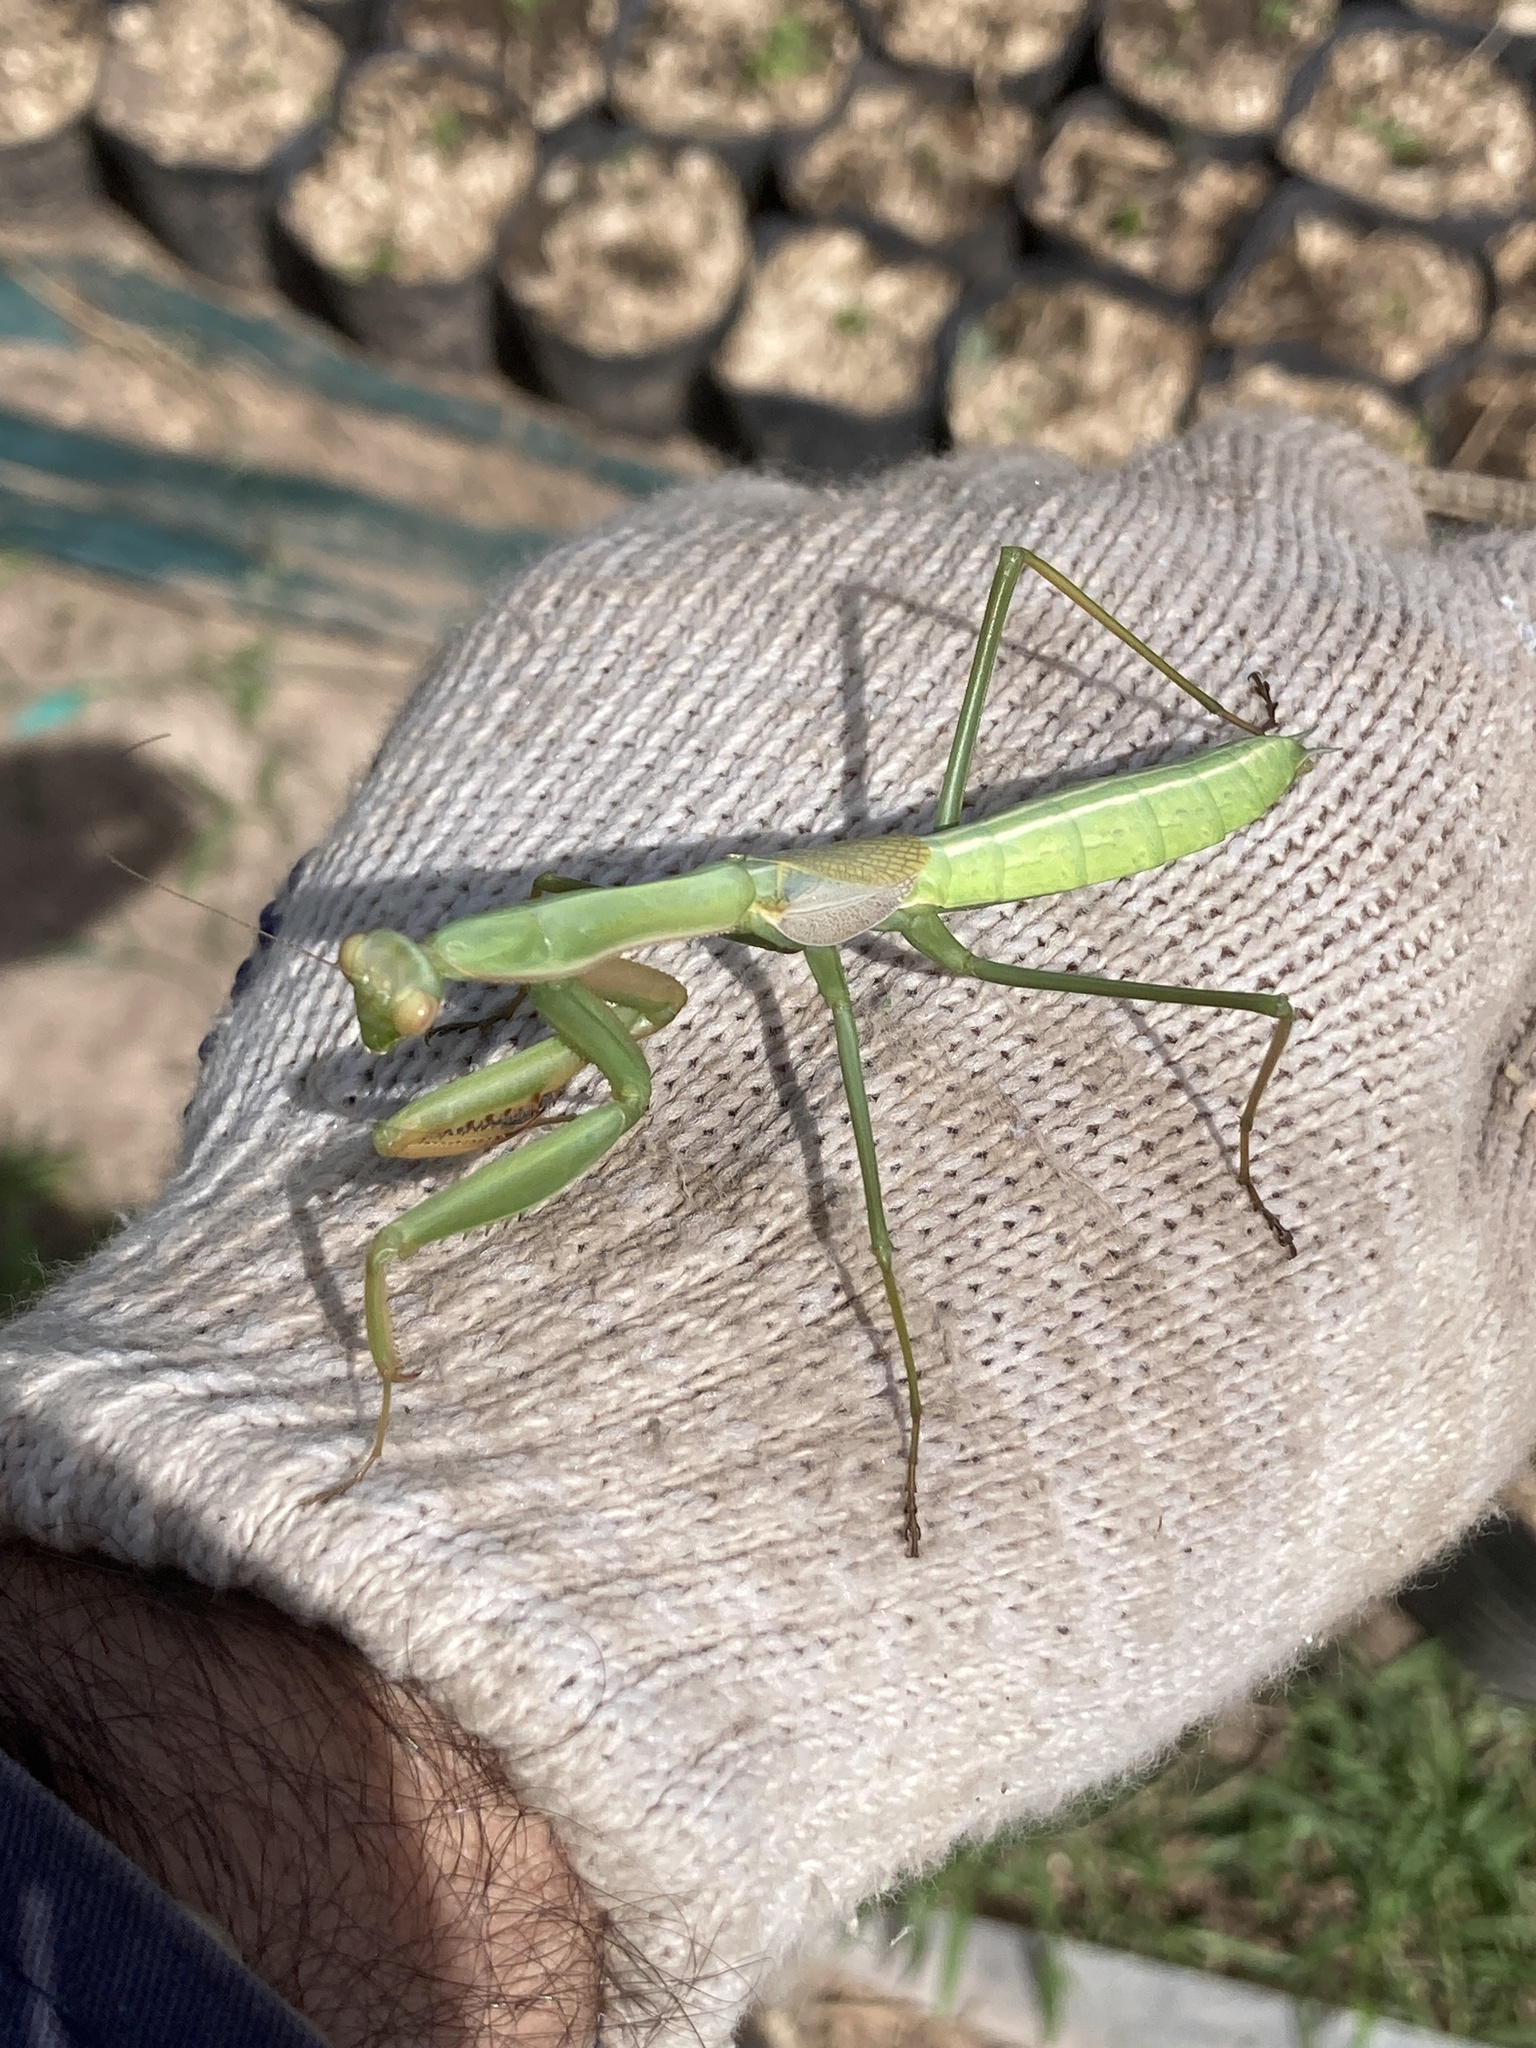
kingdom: Animalia
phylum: Arthropoda
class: Insecta
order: Mantodea
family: Coptopterygidae
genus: Coptopteryx
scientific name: Coptopteryx argentina
